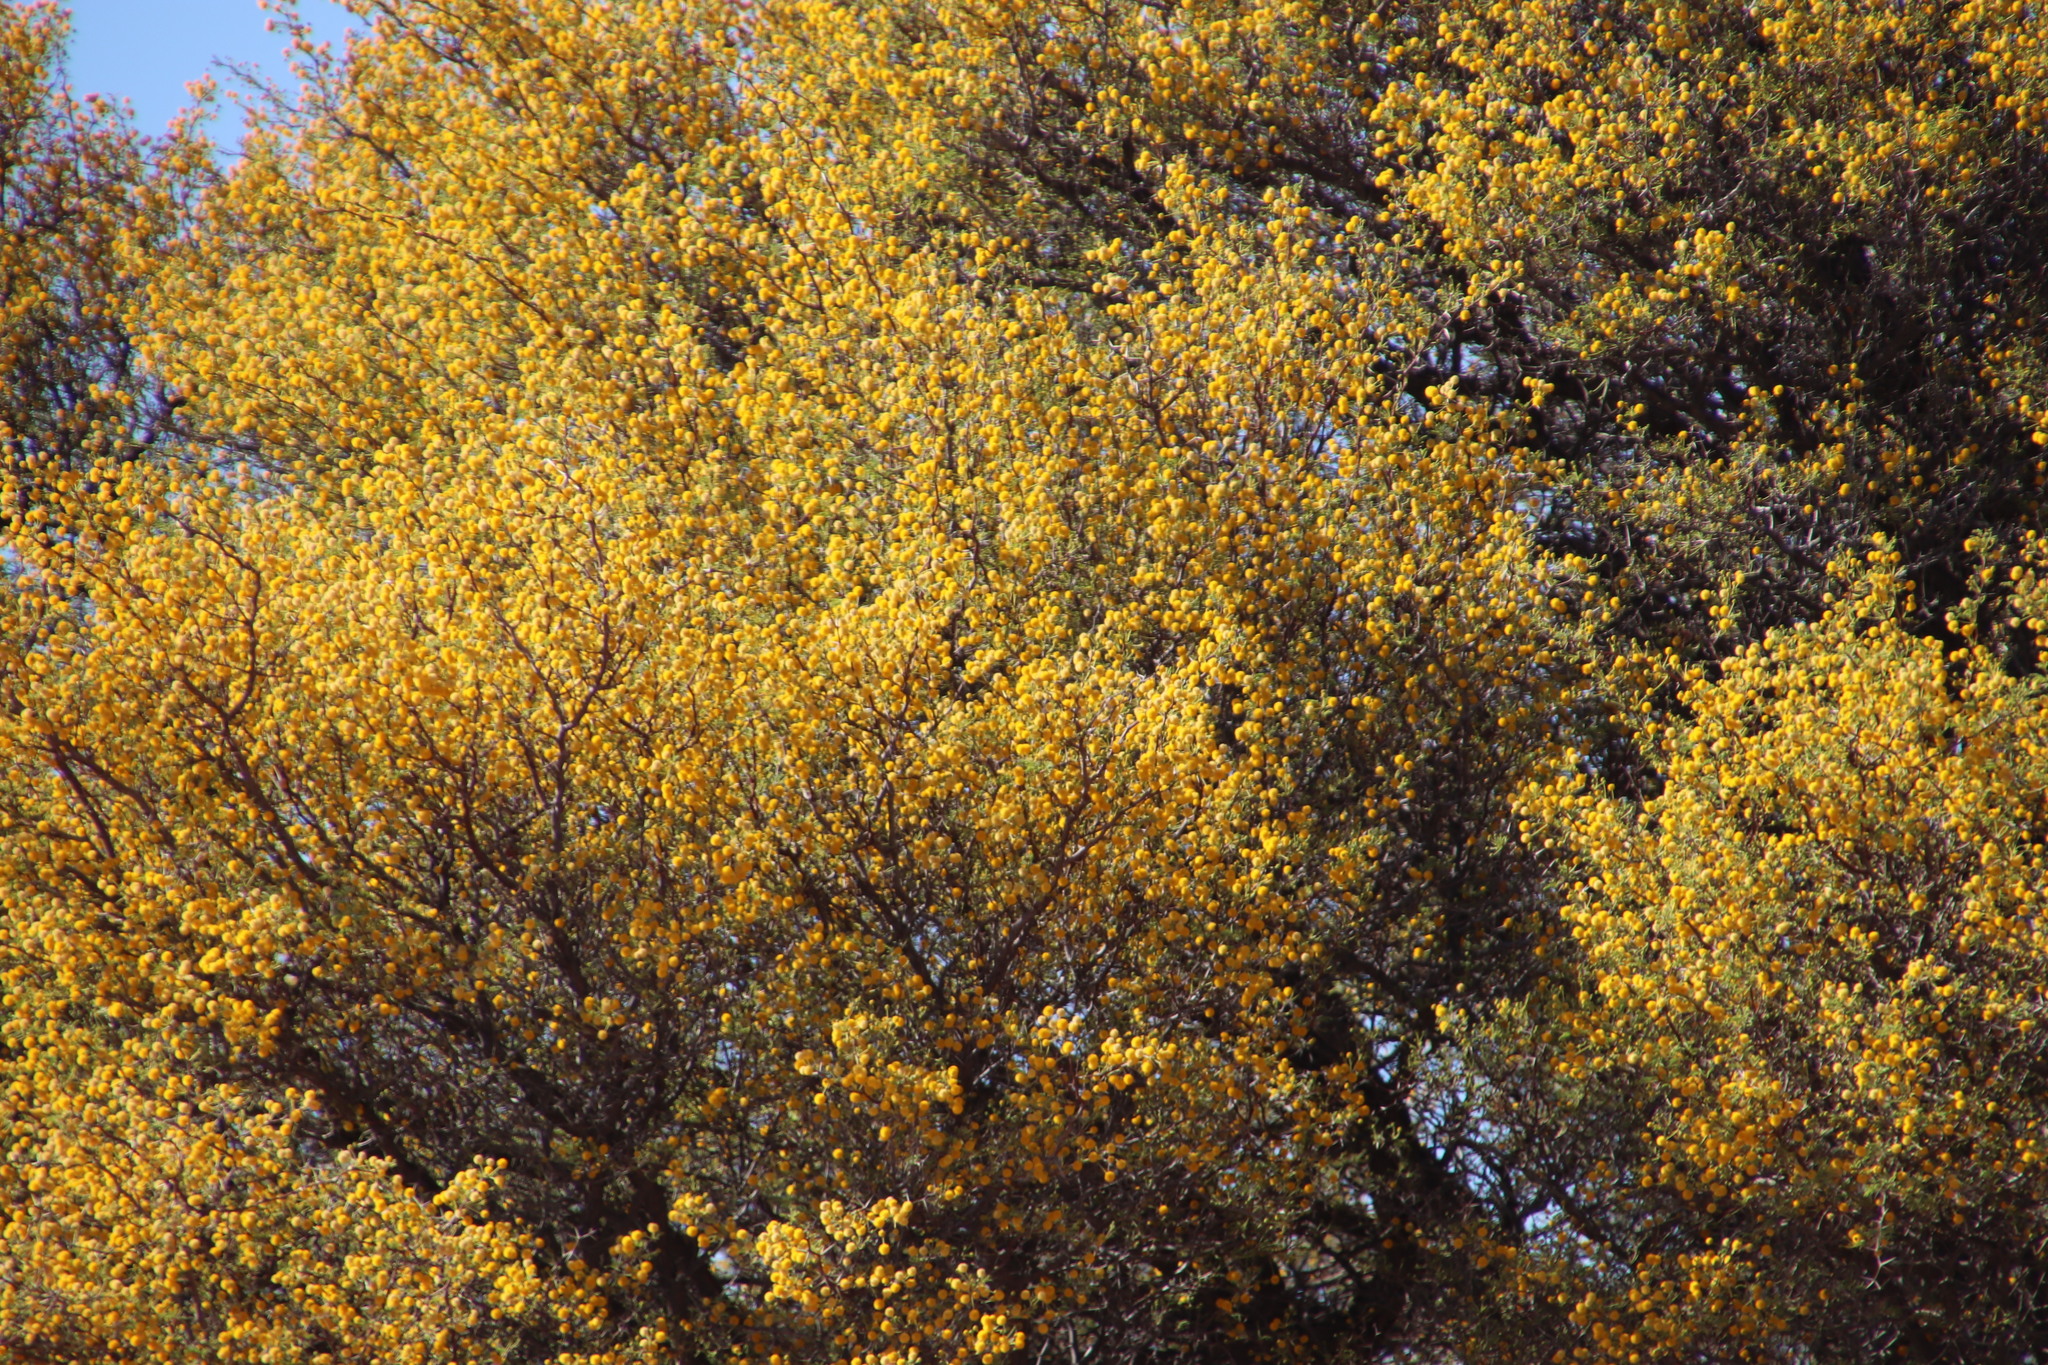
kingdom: Plantae
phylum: Tracheophyta
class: Magnoliopsida
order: Fabales
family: Fabaceae
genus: Vachellia
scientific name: Vachellia erioloba
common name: Camel thorn
